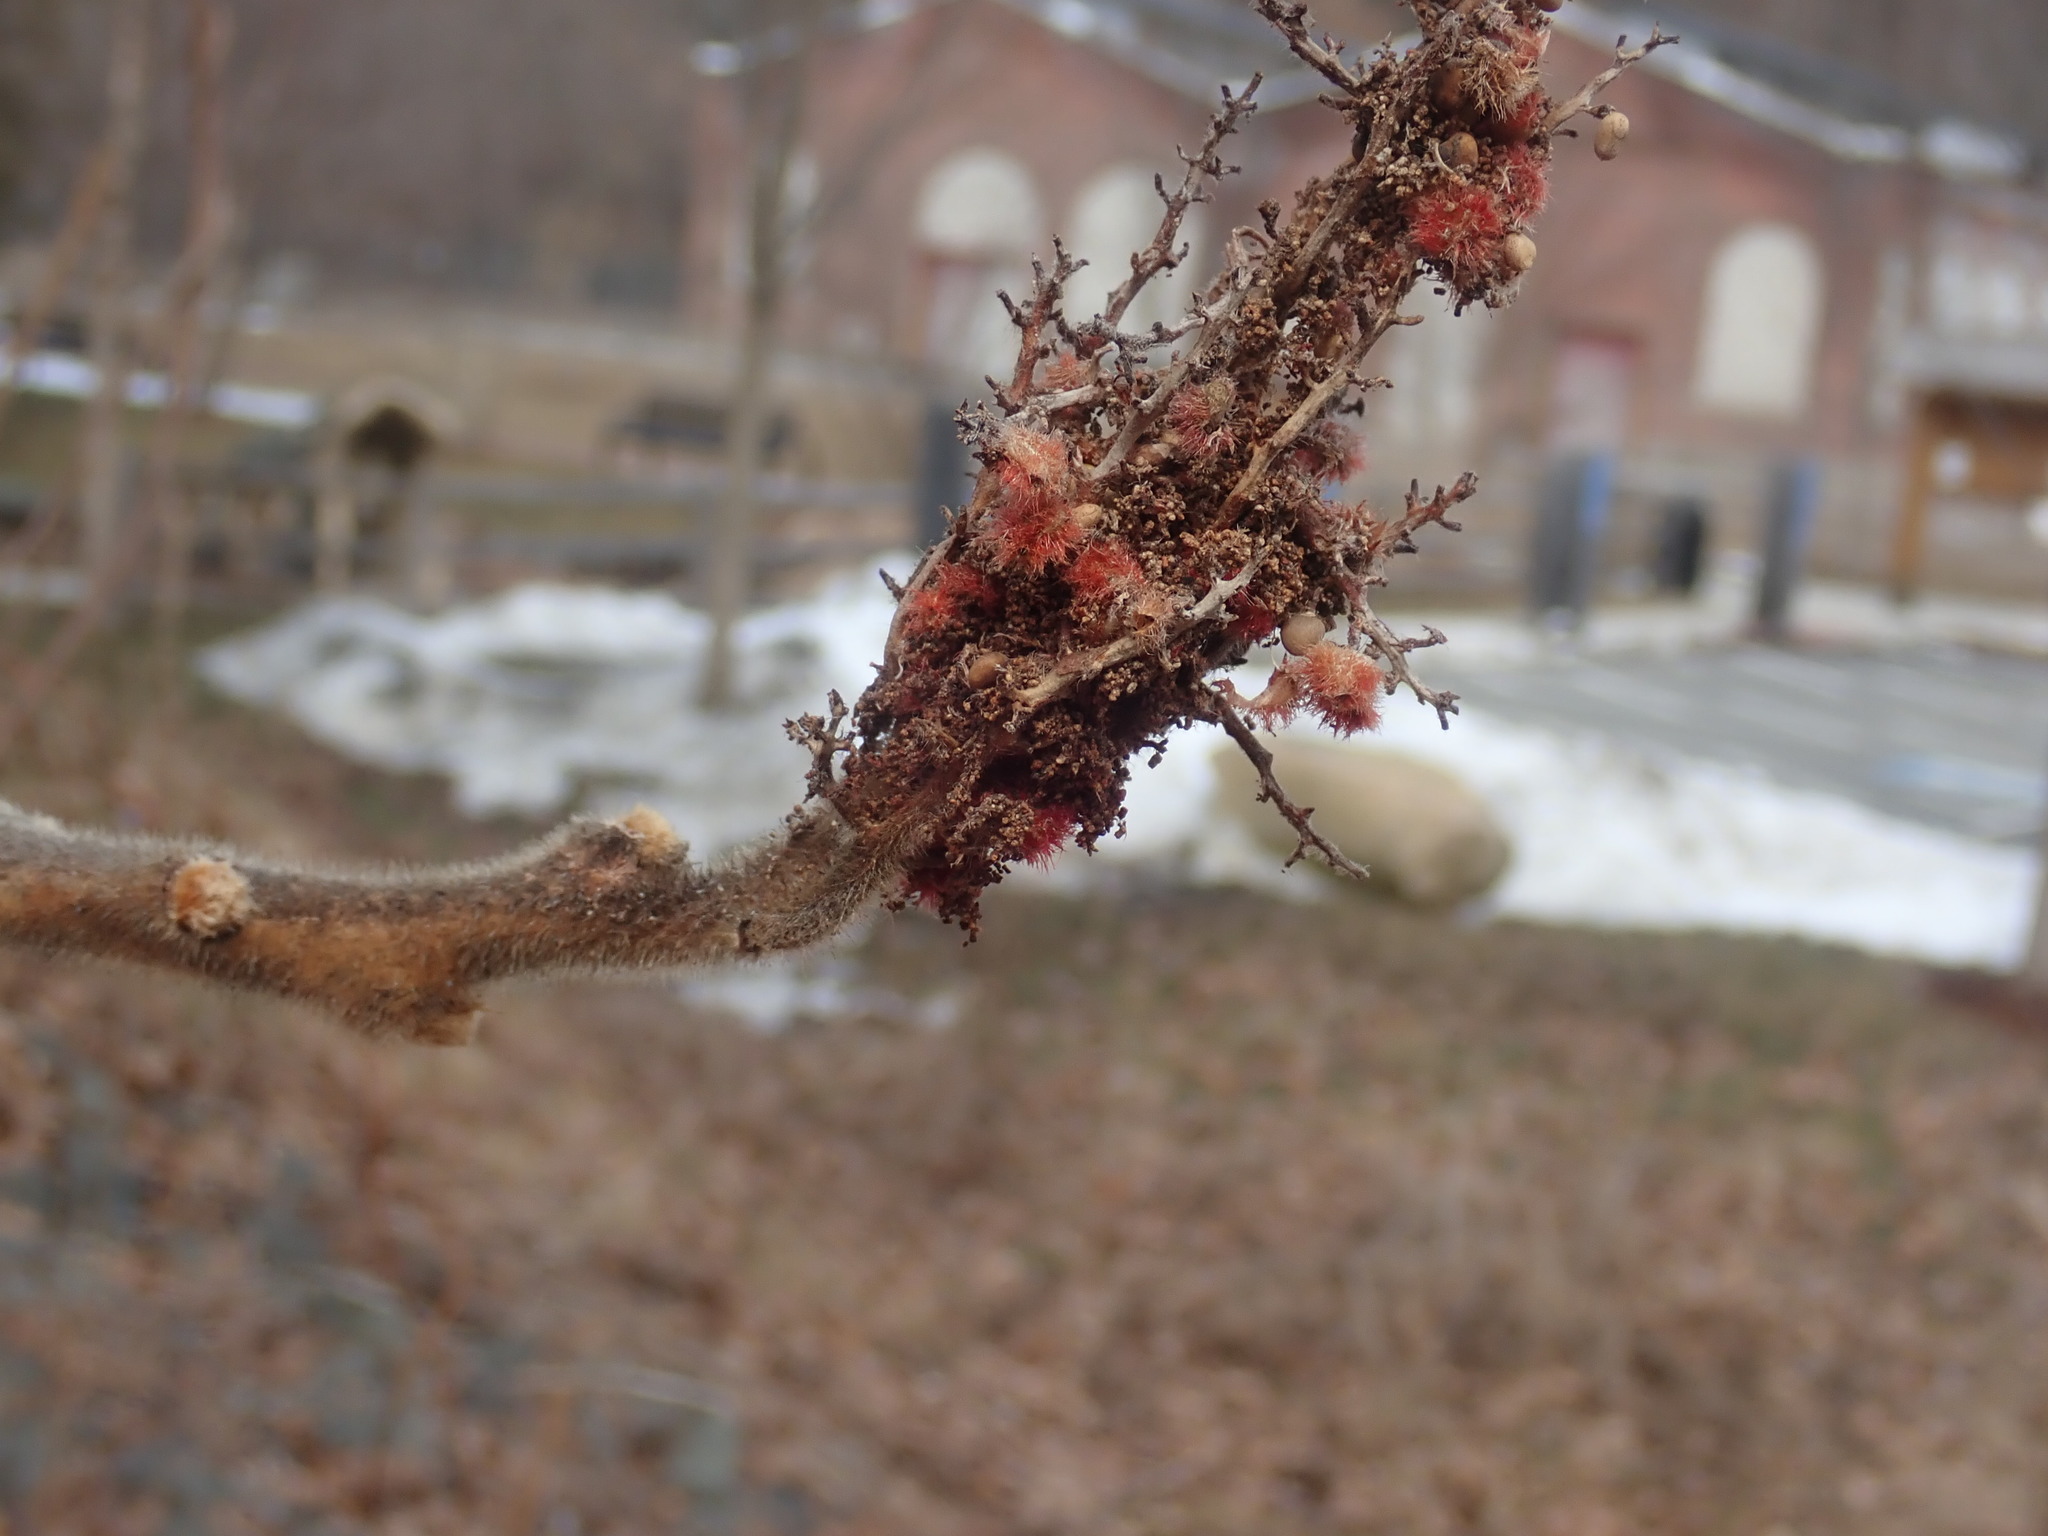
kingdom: Plantae
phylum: Tracheophyta
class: Magnoliopsida
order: Sapindales
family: Anacardiaceae
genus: Rhus
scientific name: Rhus typhina
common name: Staghorn sumac
